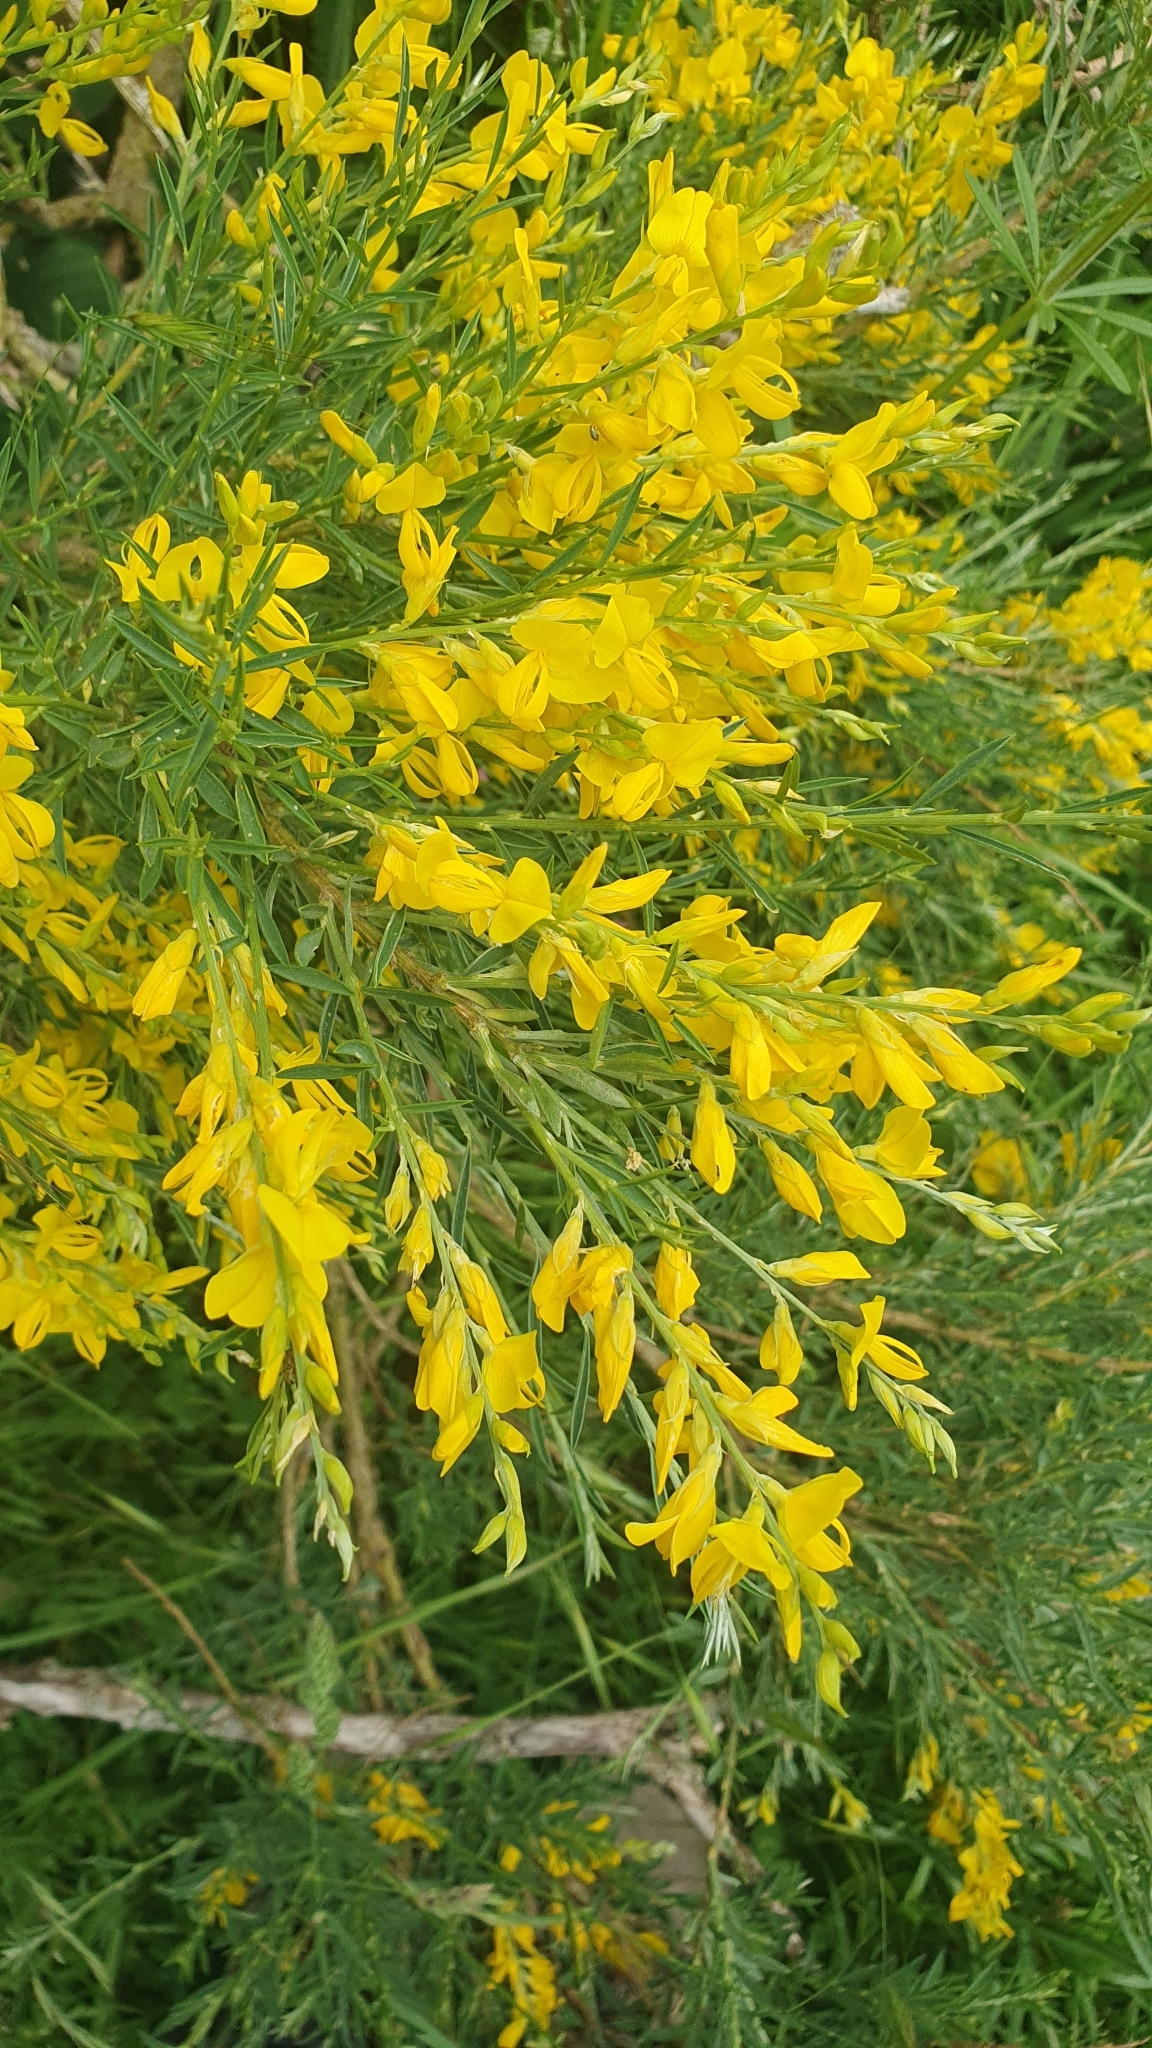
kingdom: Plantae
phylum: Tracheophyta
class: Magnoliopsida
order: Fabales
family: Fabaceae
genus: Genista
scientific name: Genista florida
